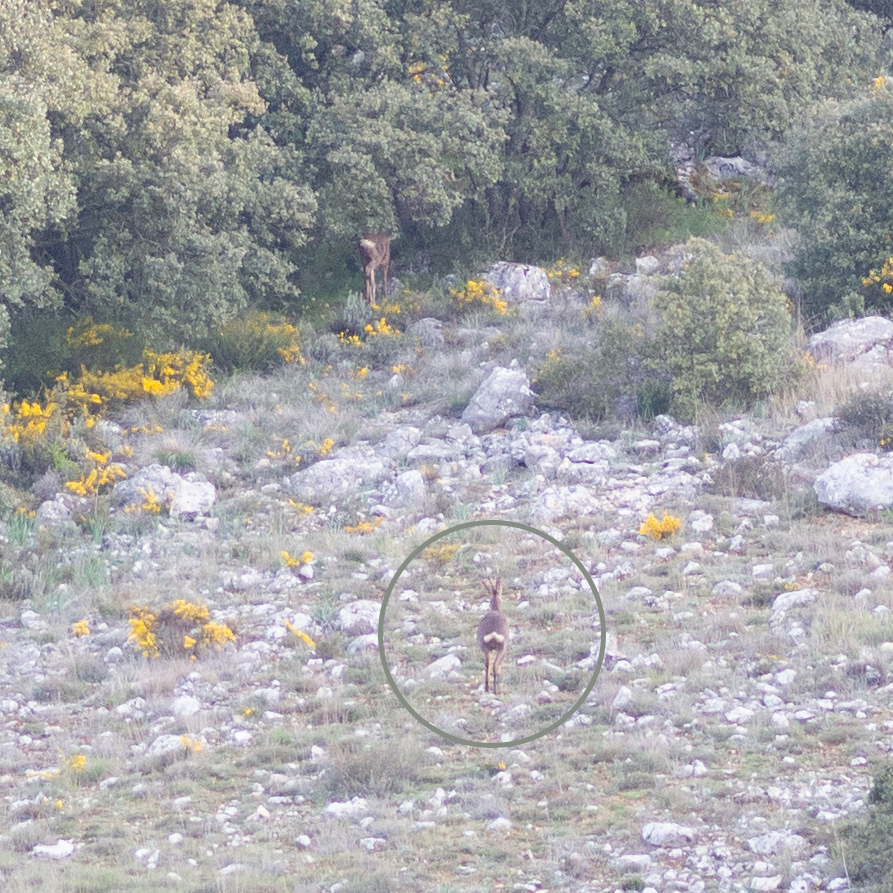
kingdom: Animalia
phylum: Chordata
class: Mammalia
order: Artiodactyla
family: Cervidae
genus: Capreolus
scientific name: Capreolus capreolus
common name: Western roe deer
